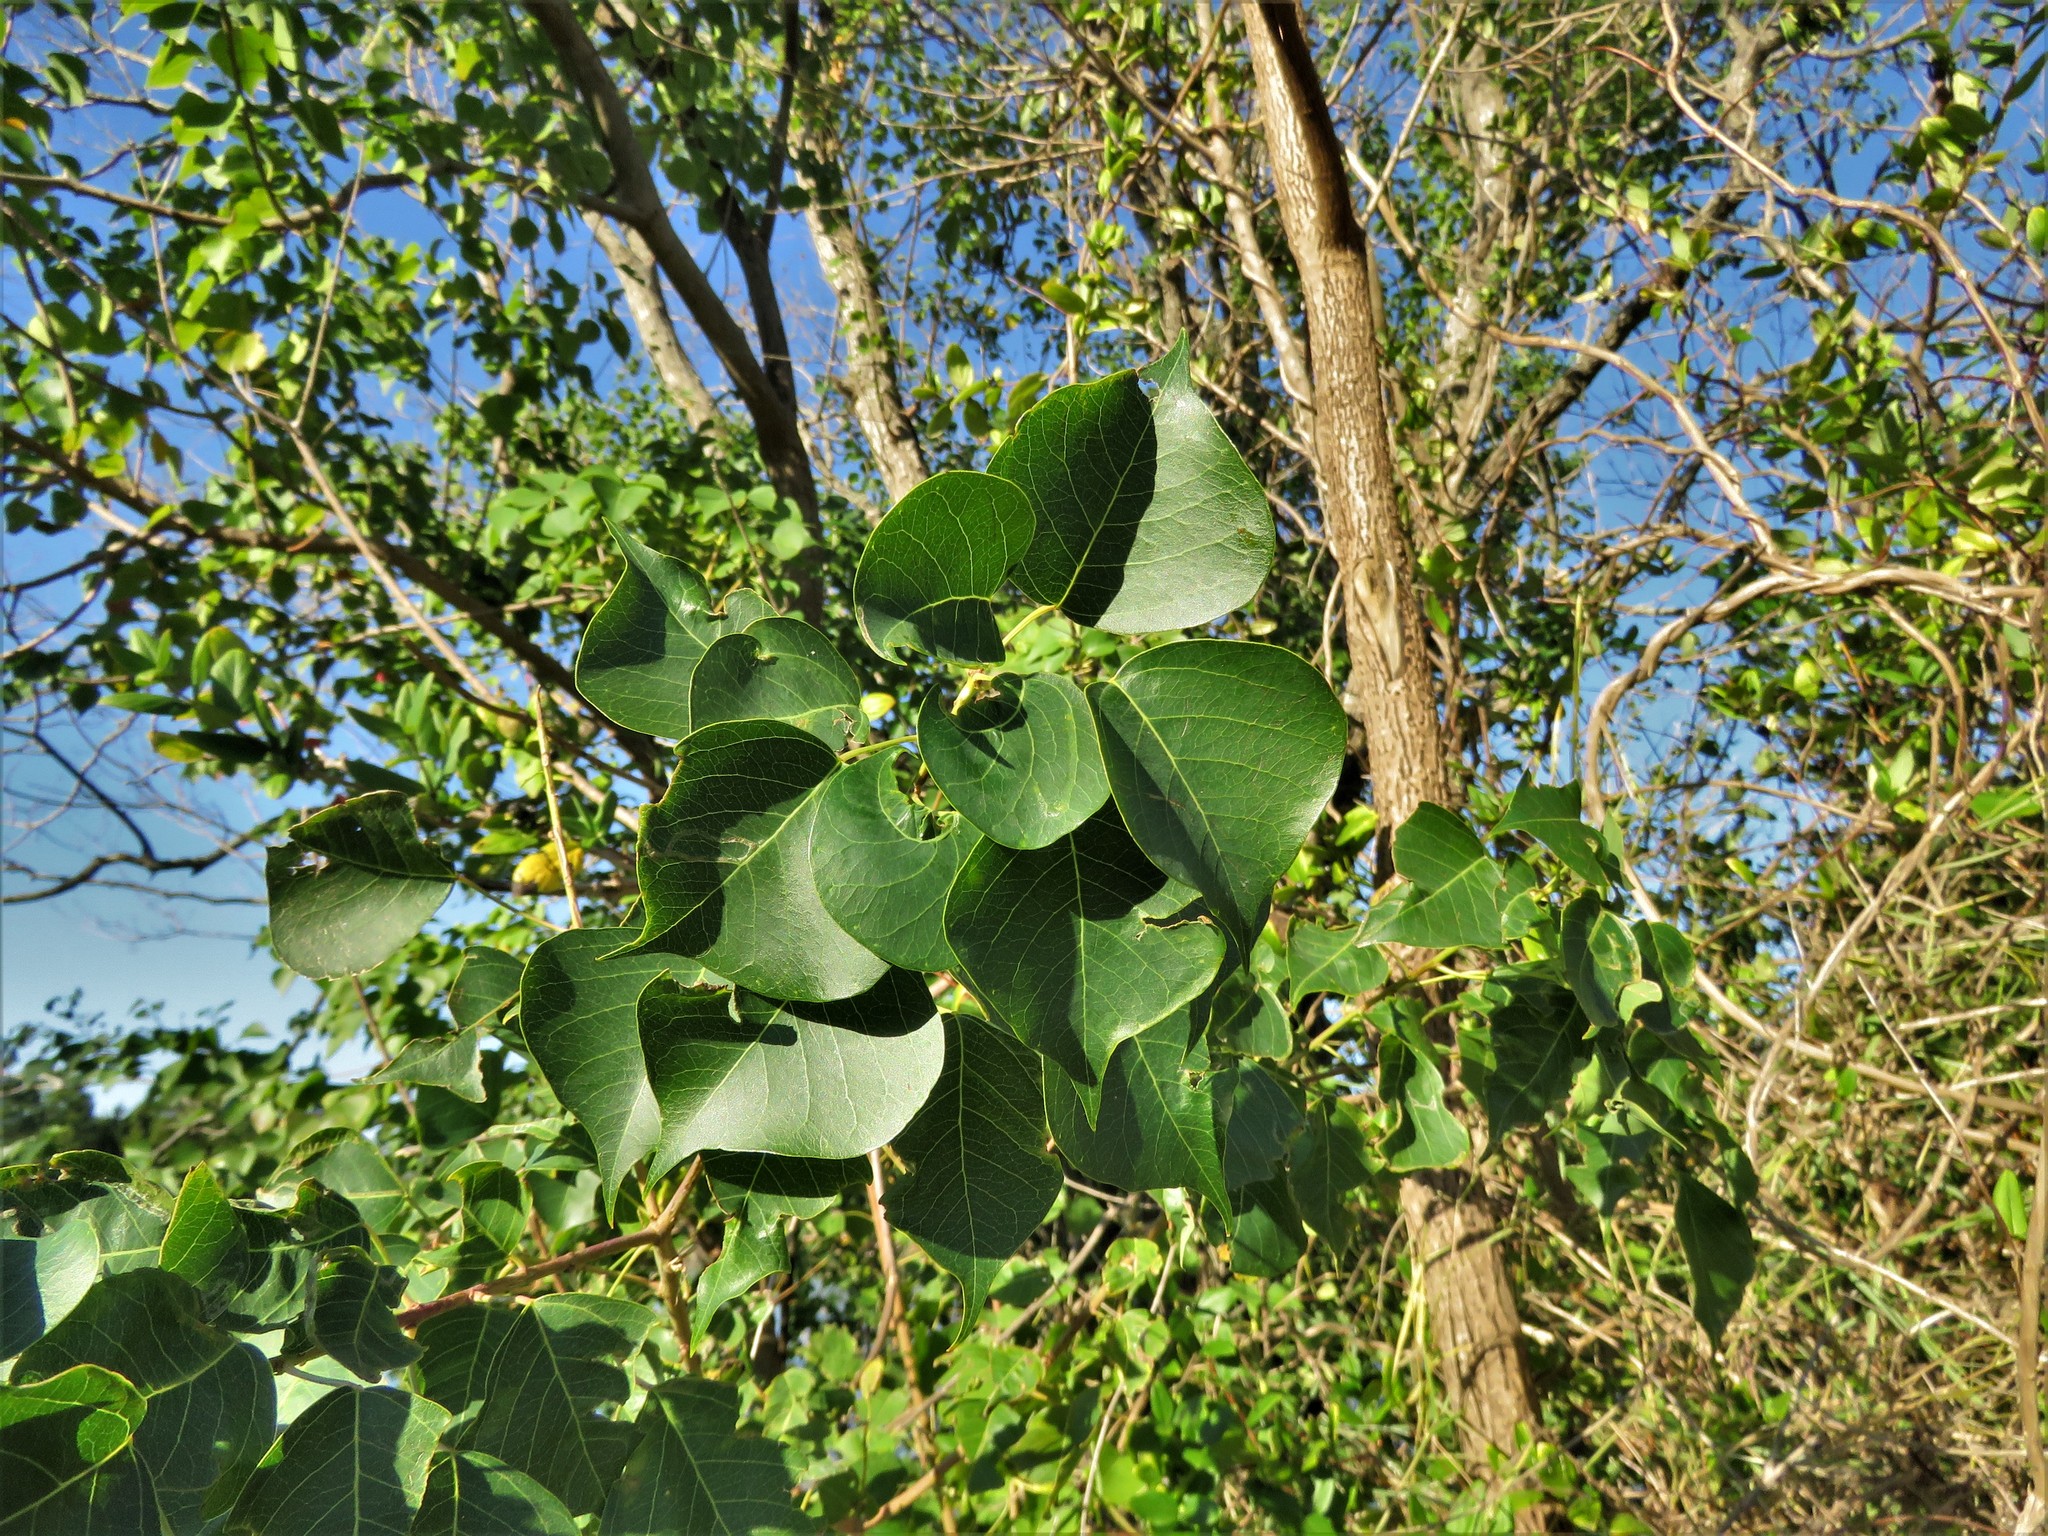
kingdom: Plantae
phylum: Tracheophyta
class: Magnoliopsida
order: Malpighiales
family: Euphorbiaceae
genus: Triadica
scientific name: Triadica sebifera
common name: Chinese tallow
